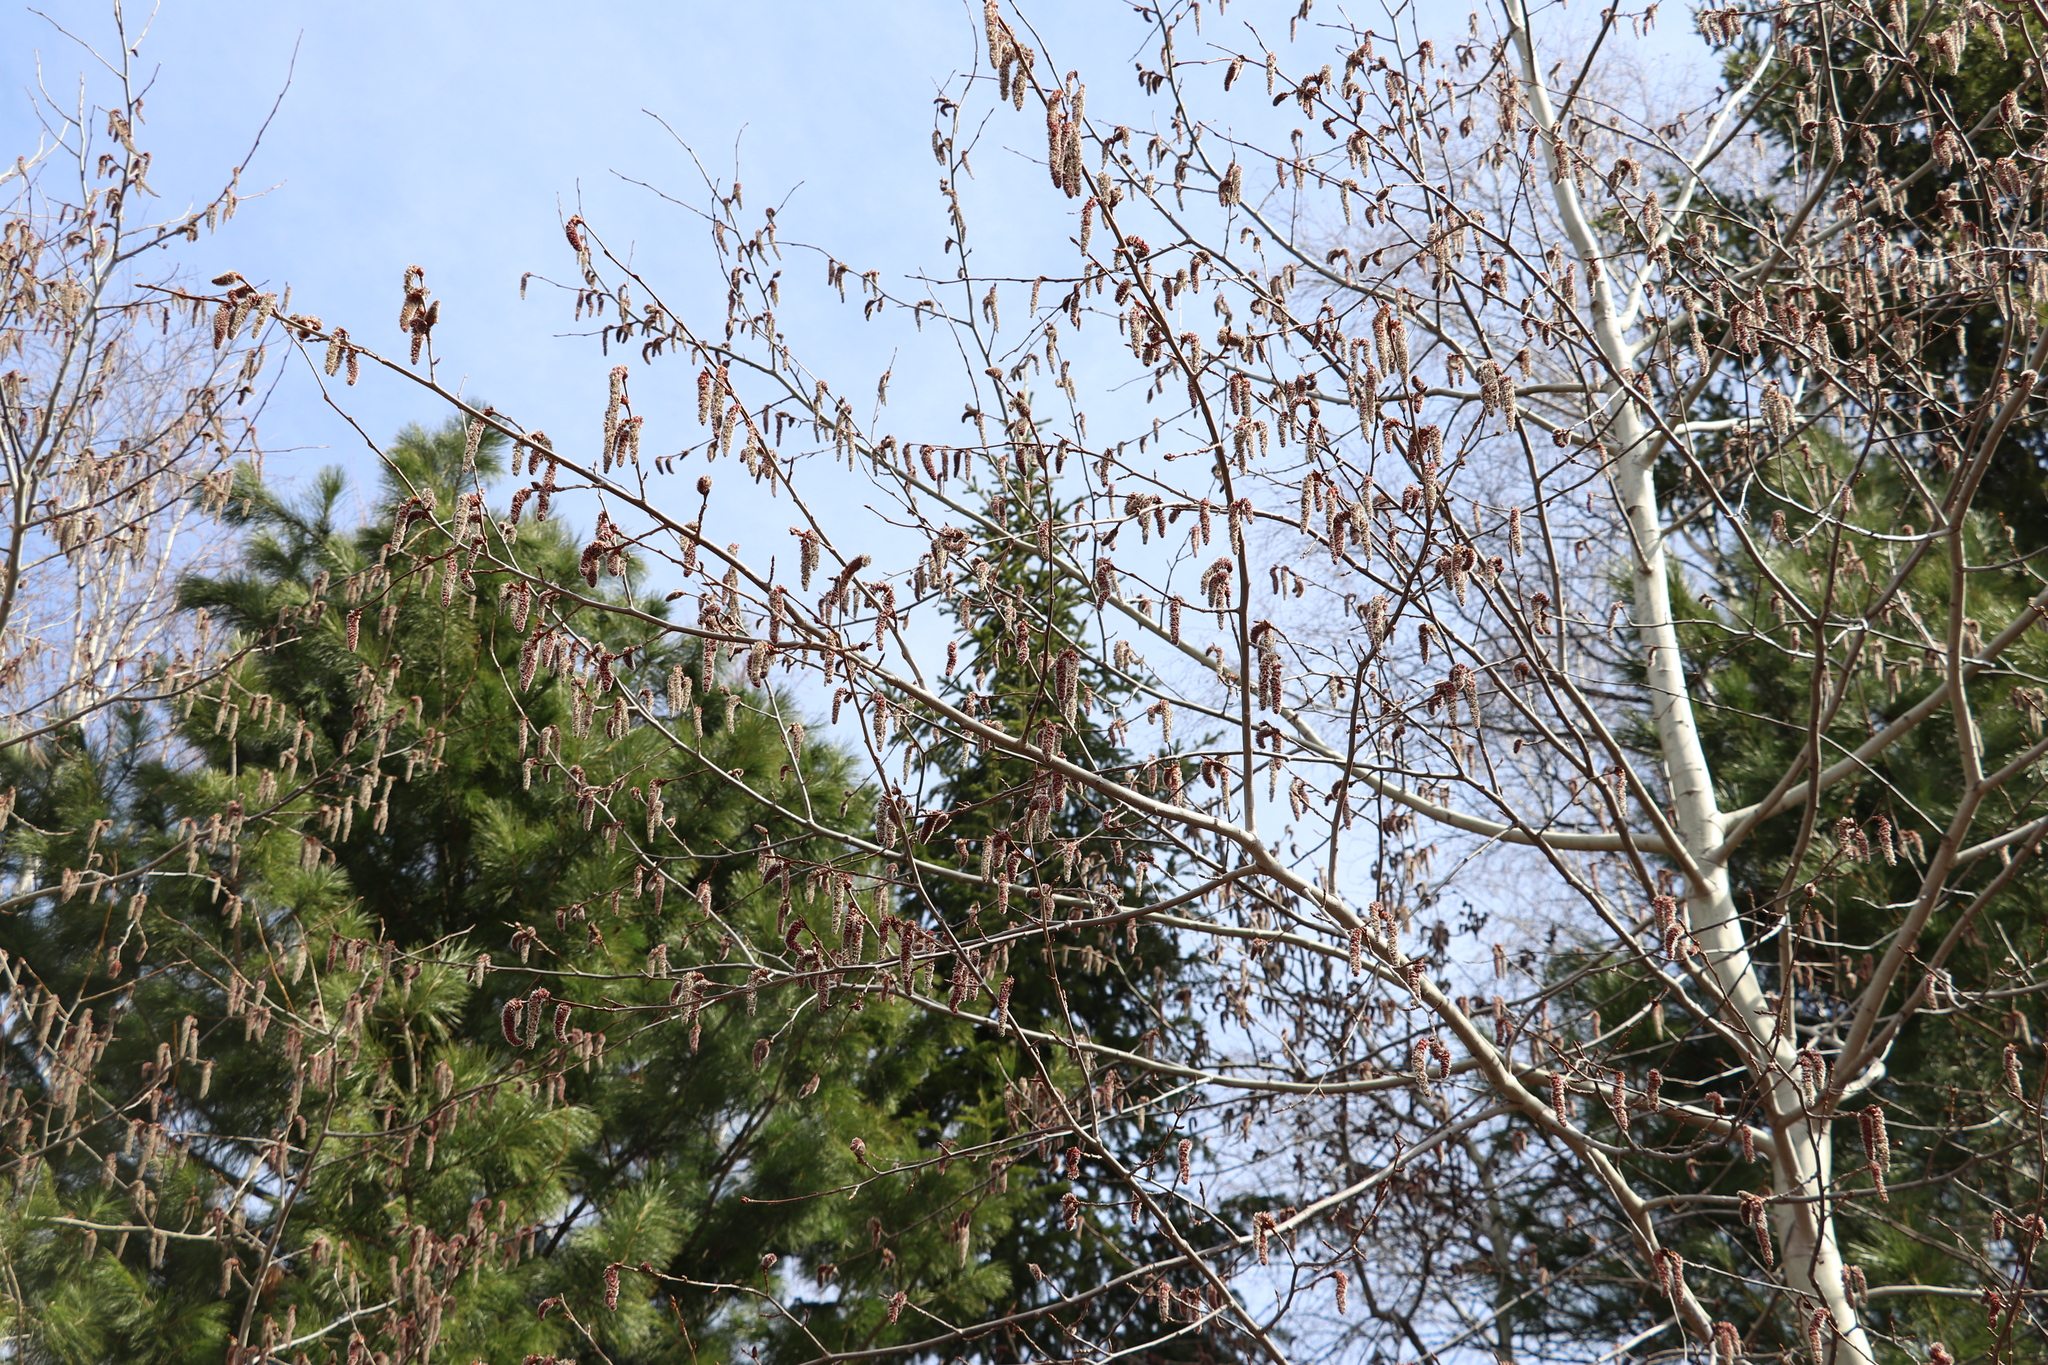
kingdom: Plantae
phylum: Tracheophyta
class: Magnoliopsida
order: Malpighiales
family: Salicaceae
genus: Populus
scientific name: Populus tremula
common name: European aspen
